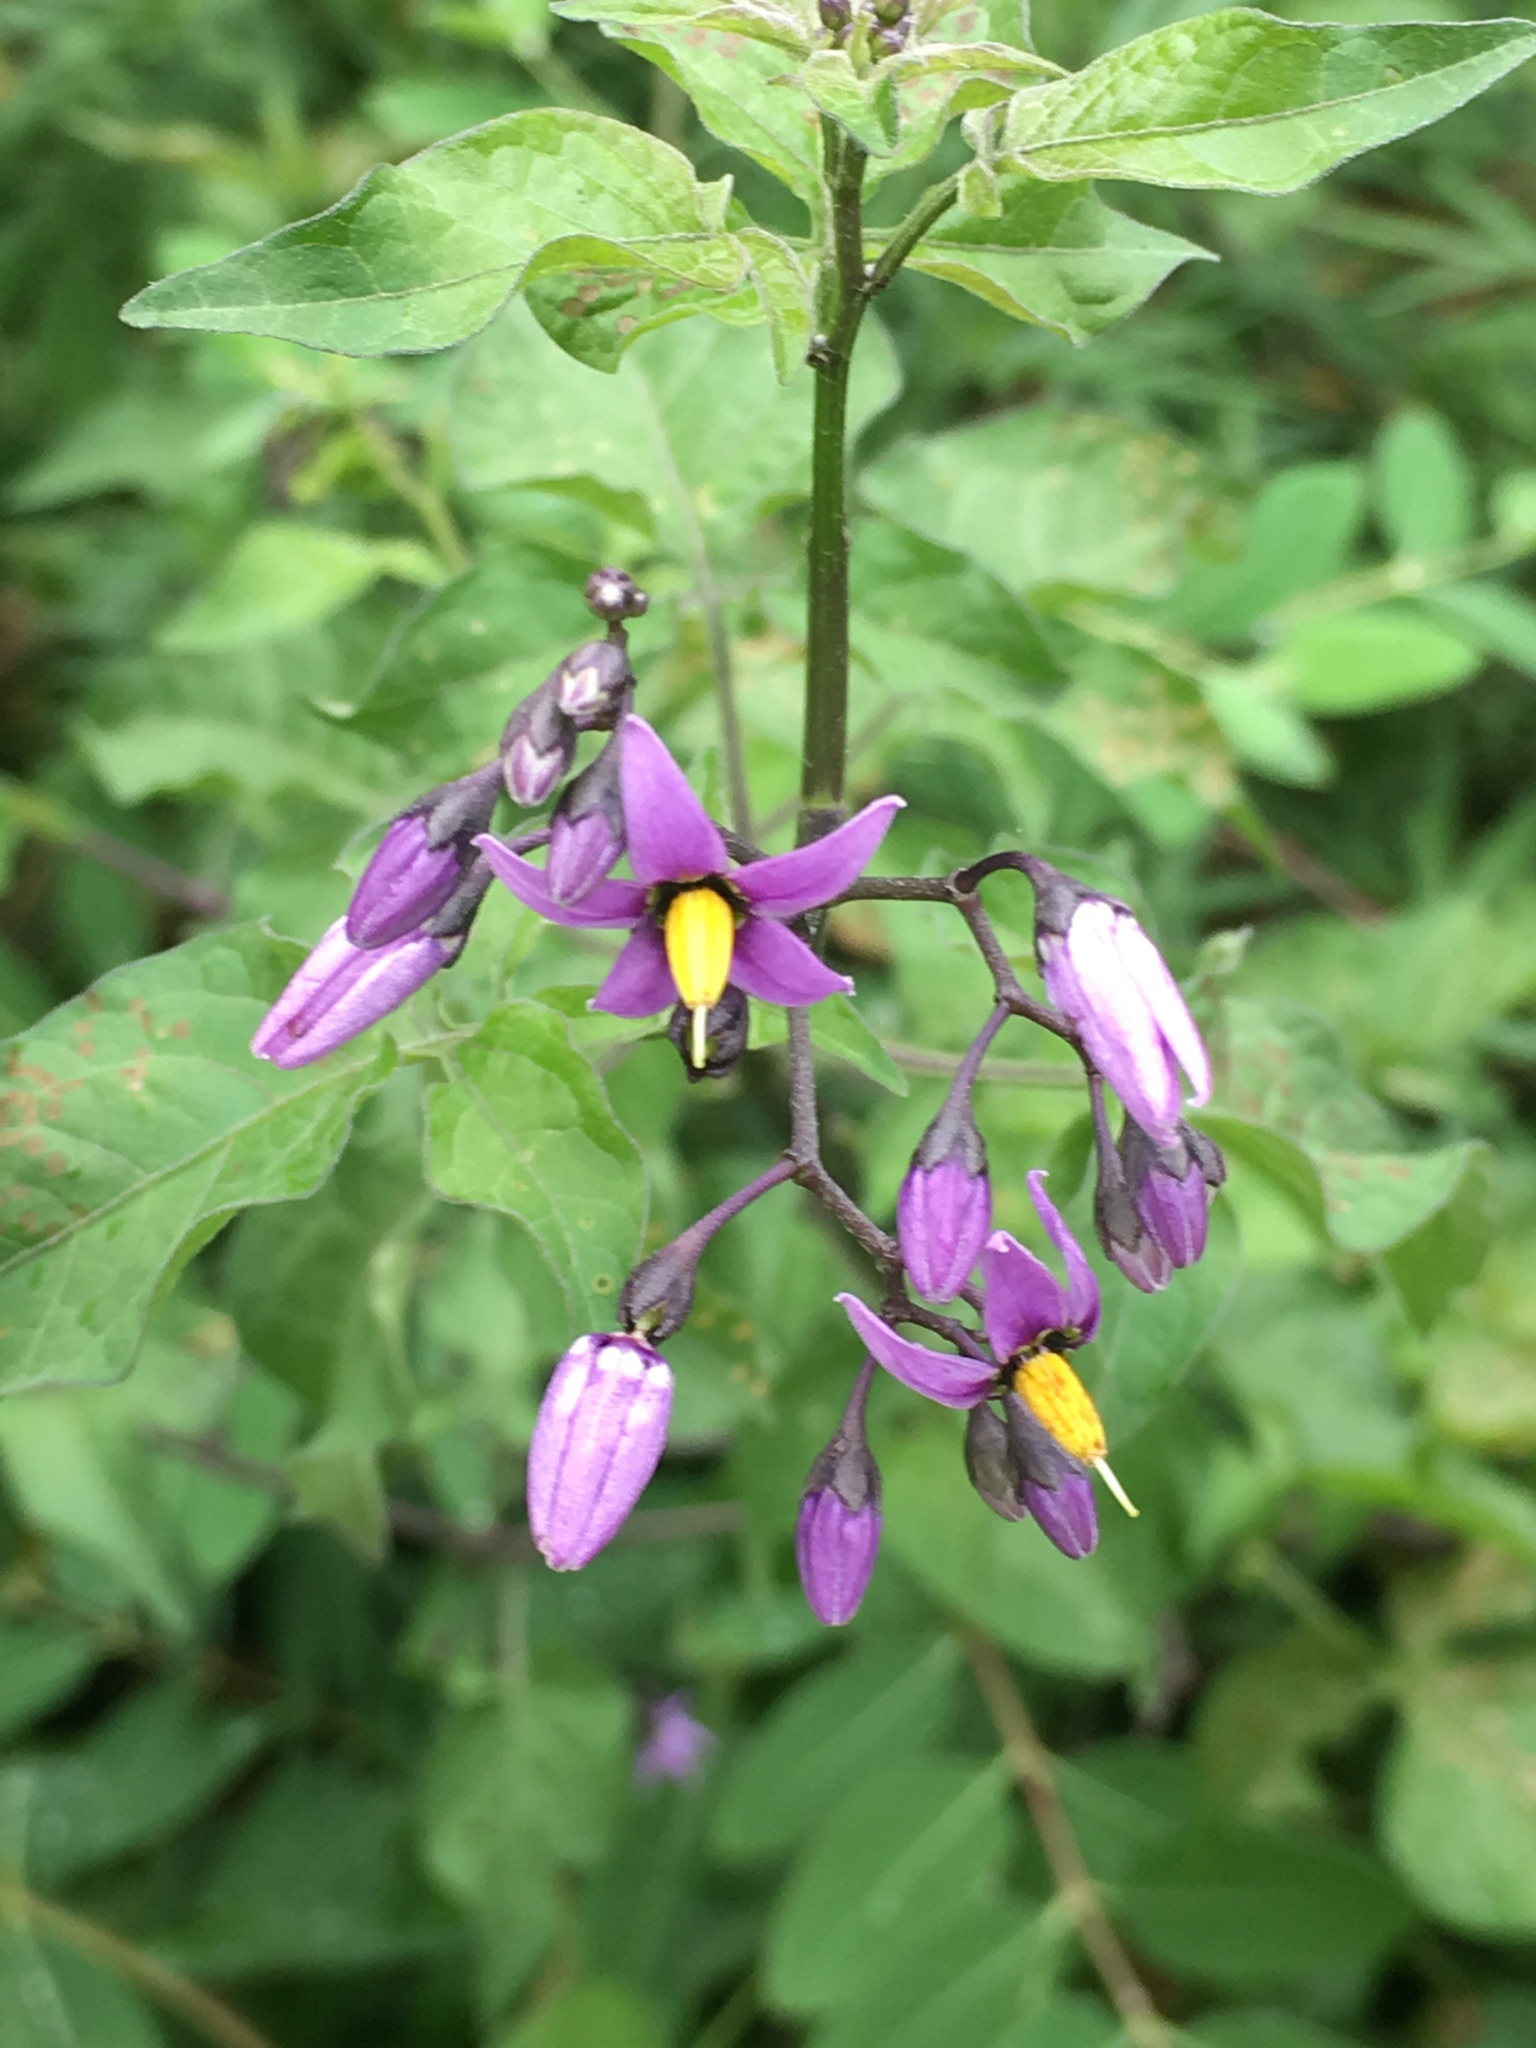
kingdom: Plantae
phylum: Tracheophyta
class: Magnoliopsida
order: Solanales
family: Solanaceae
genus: Solanum
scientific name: Solanum dulcamara
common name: Climbing nightshade
